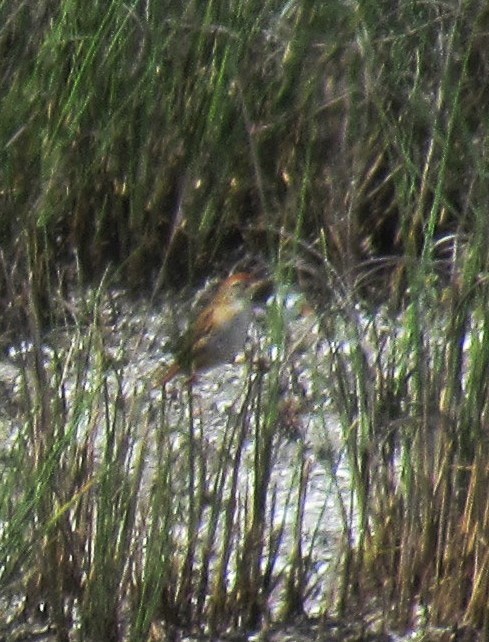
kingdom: Animalia
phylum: Chordata
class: Aves
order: Passeriformes
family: Furnariidae
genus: Spartonoica
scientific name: Spartonoica maluroides
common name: Bay-capped wren-spinetail
